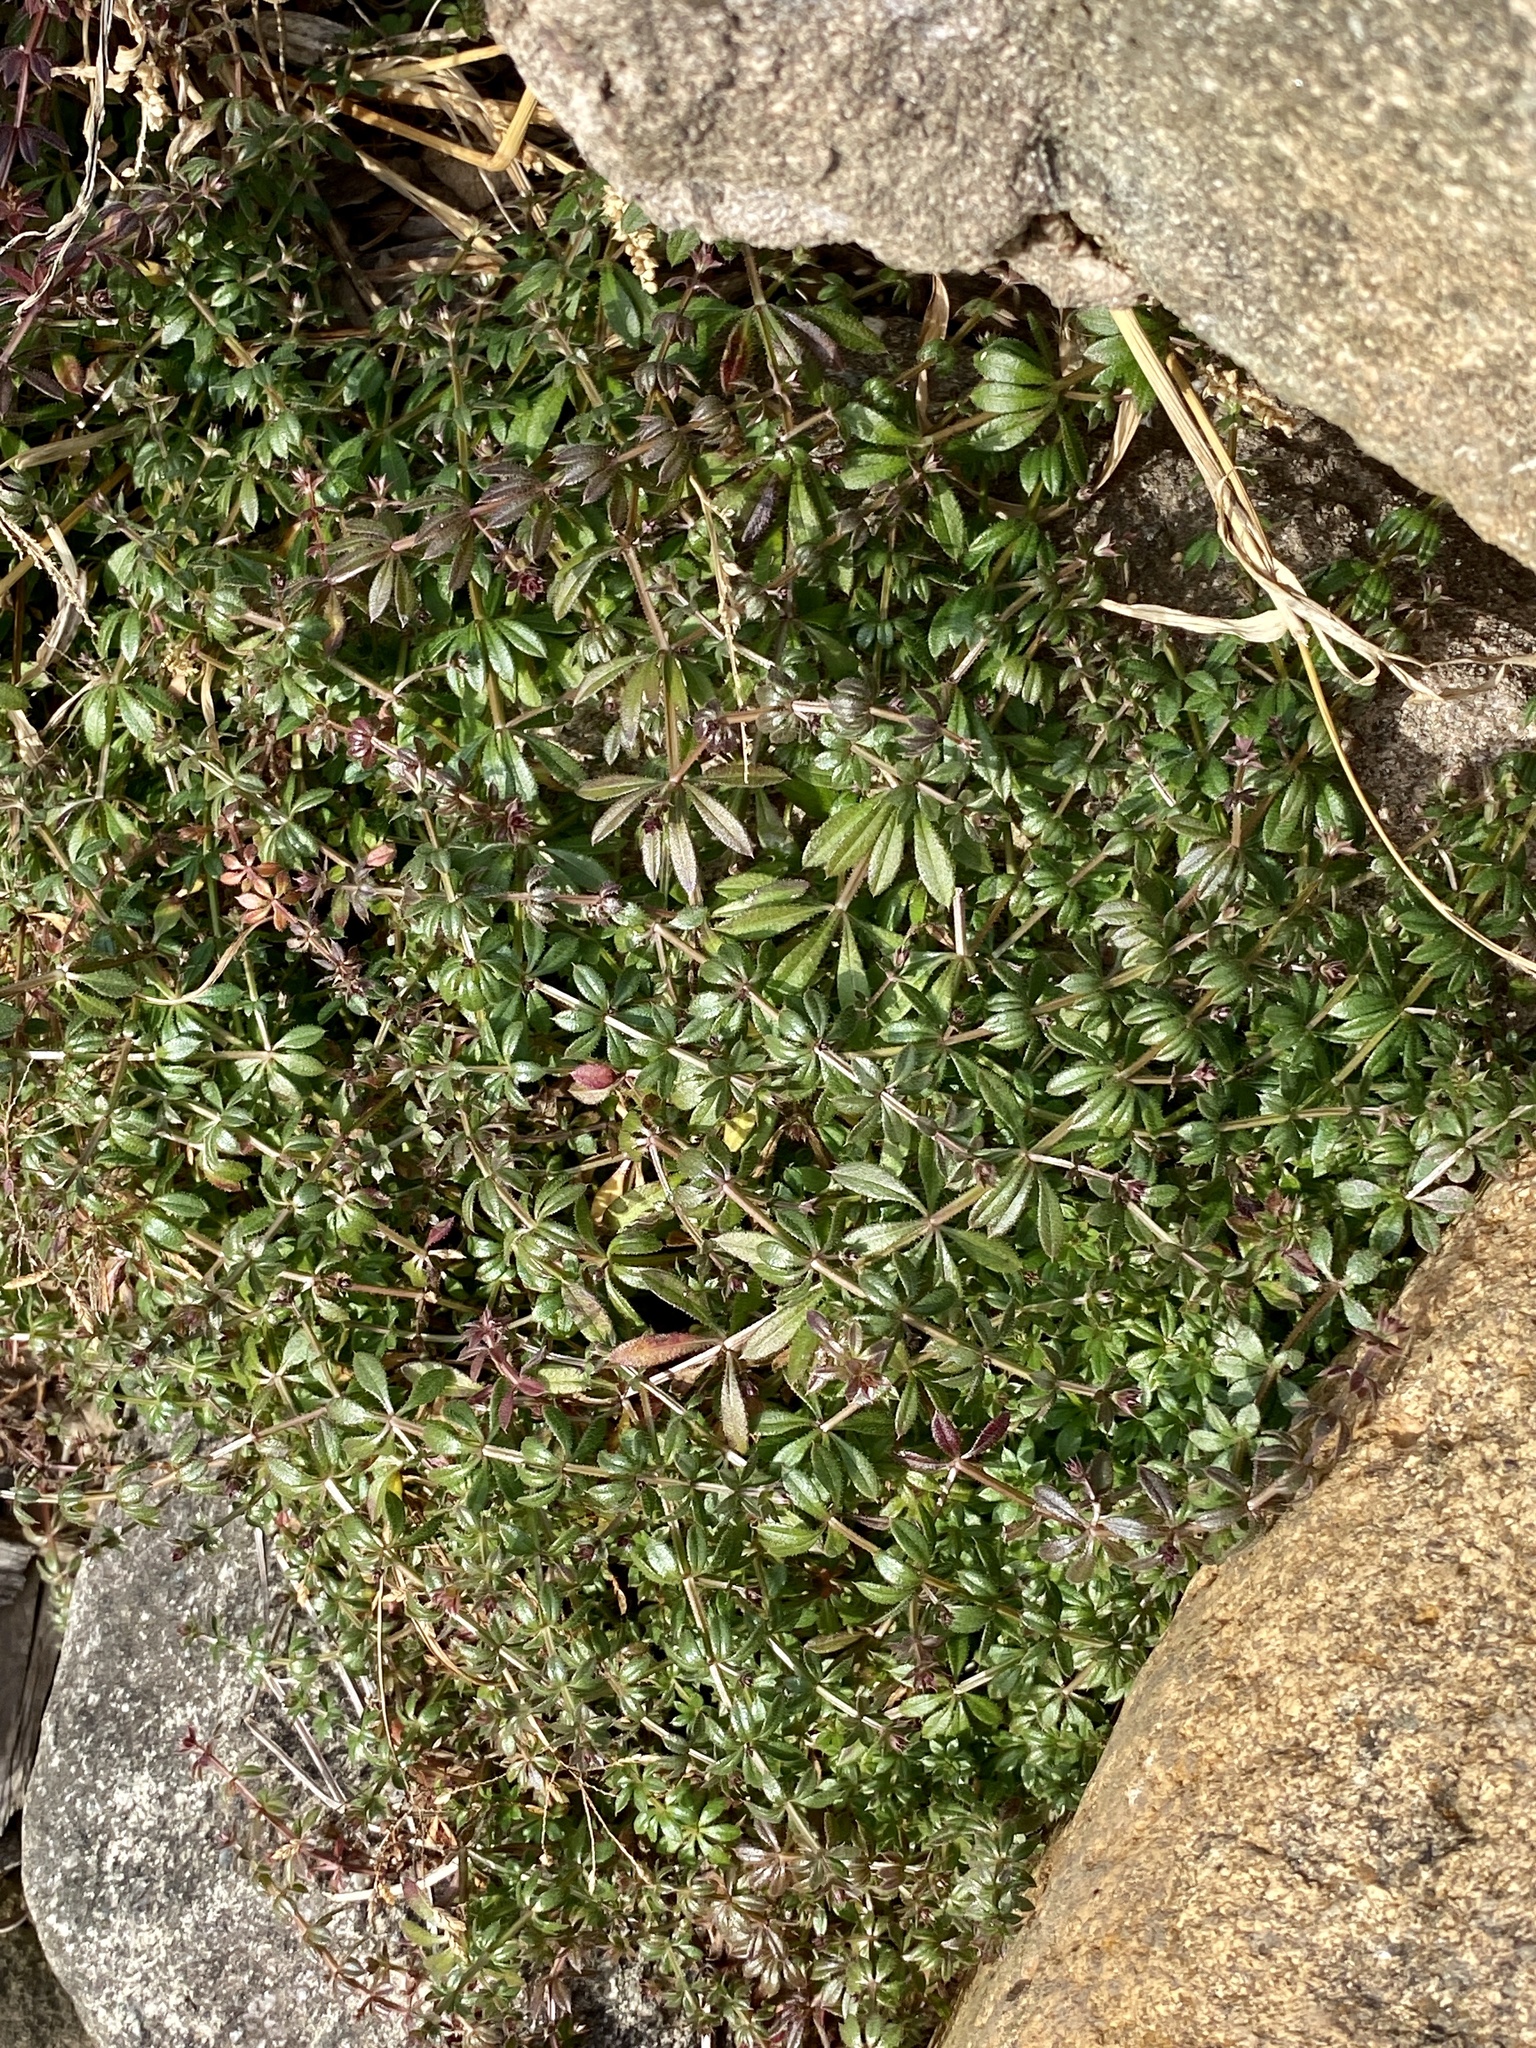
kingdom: Plantae
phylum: Tracheophyta
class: Magnoliopsida
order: Gentianales
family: Rubiaceae
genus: Galium
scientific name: Galium aparine
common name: Cleavers
